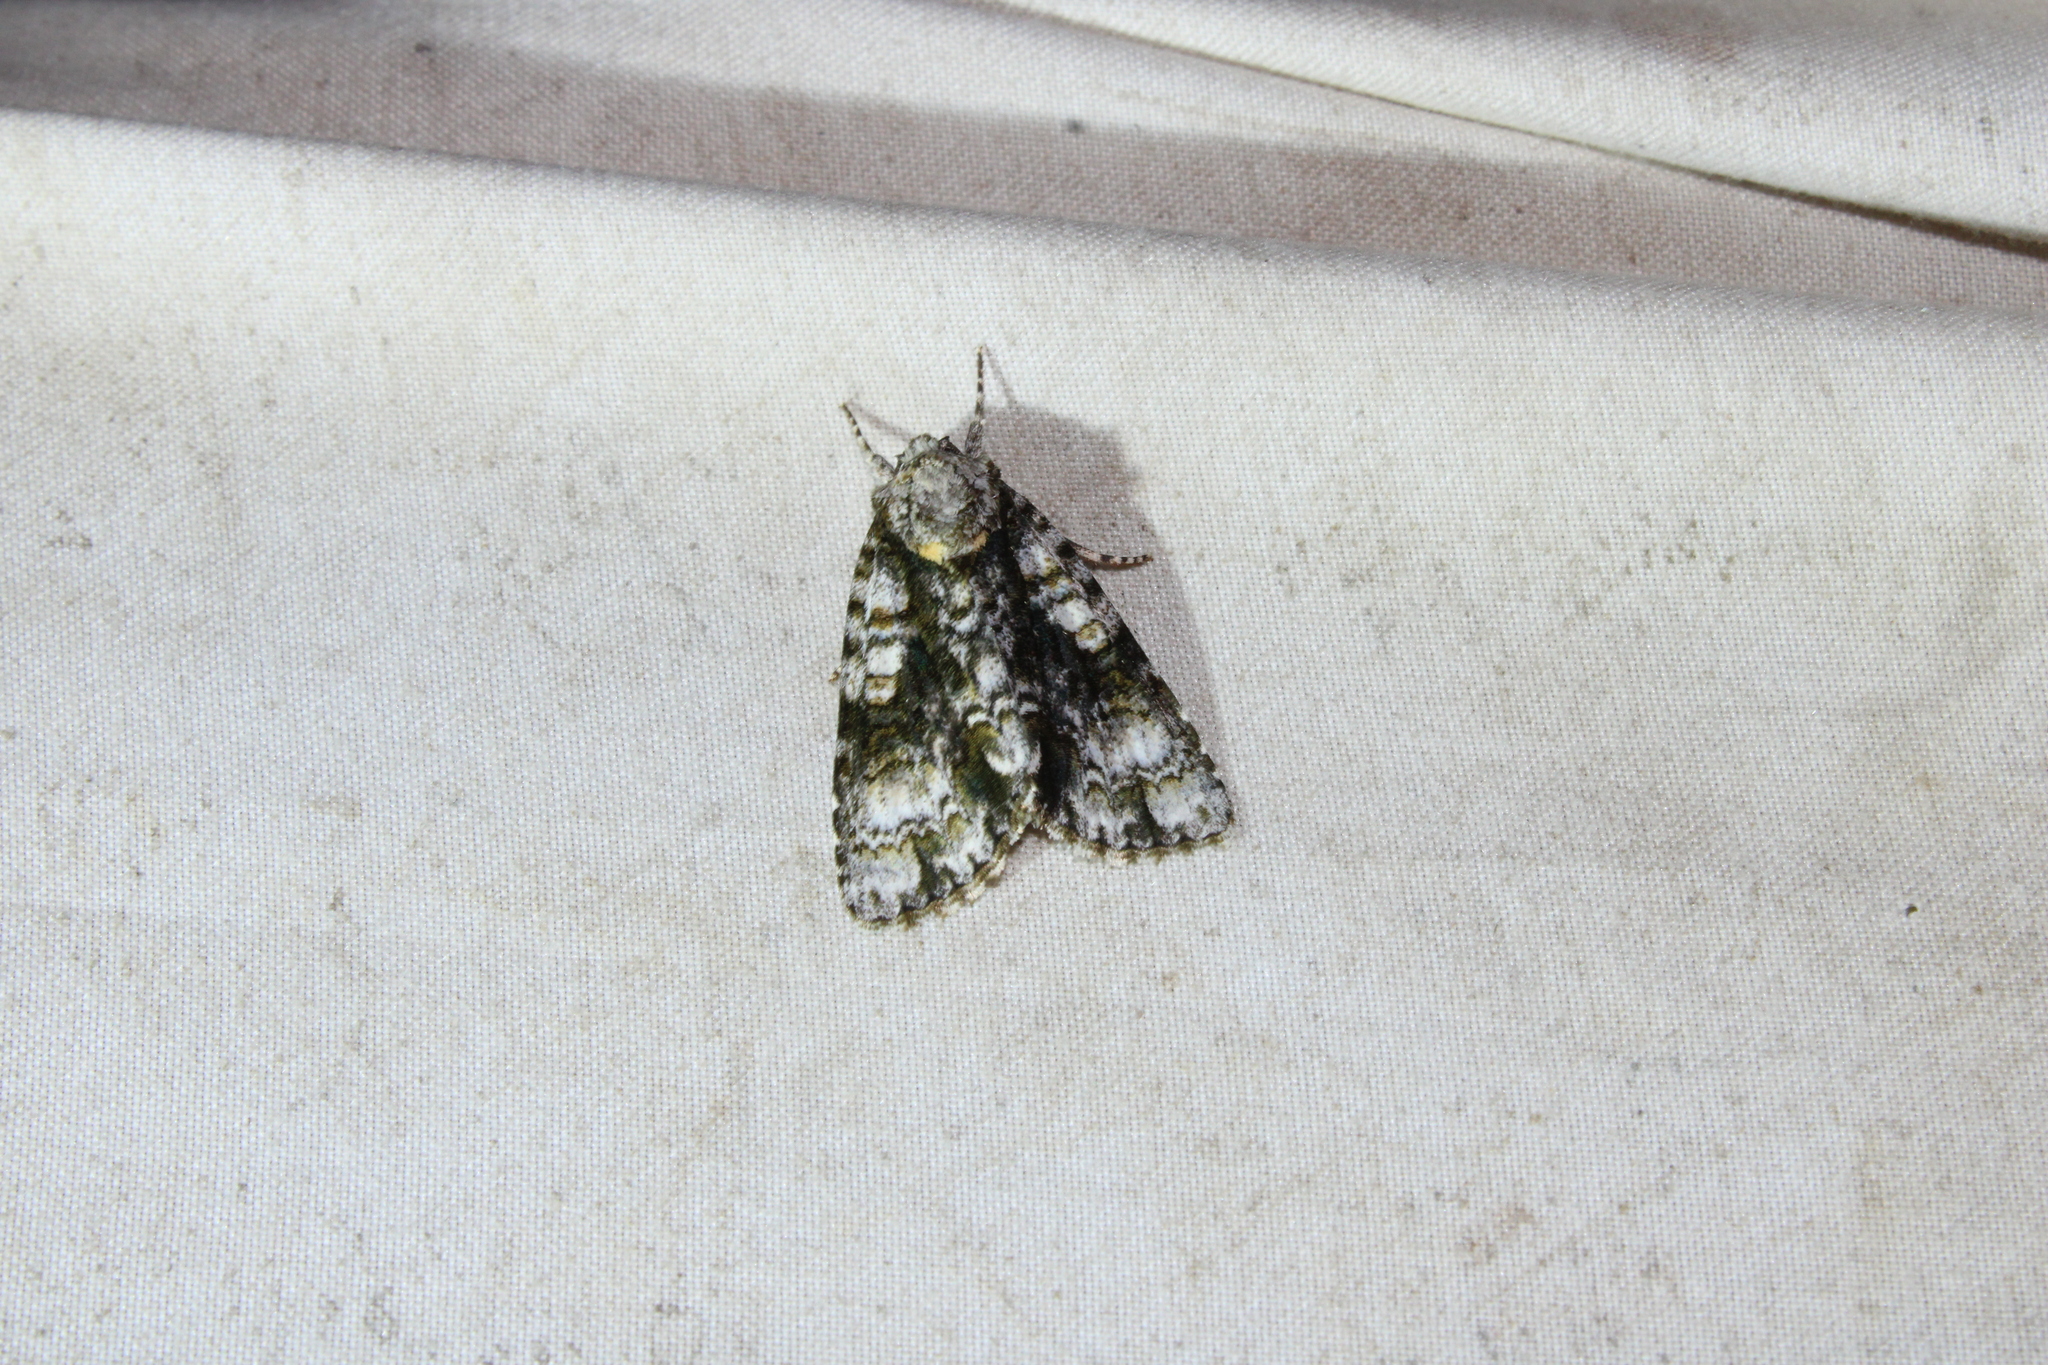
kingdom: Animalia
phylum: Arthropoda
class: Insecta
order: Lepidoptera
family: Noctuidae
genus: Acronicta
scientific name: Acronicta superans
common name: Splendid dagger
